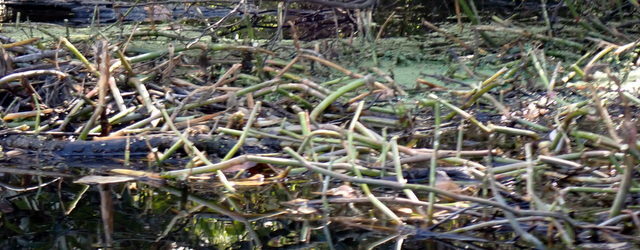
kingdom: Plantae
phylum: Tracheophyta
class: Magnoliopsida
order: Caryophyllales
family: Amaranthaceae
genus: Alternanthera
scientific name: Alternanthera philoxeroides
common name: Alligatorweed
